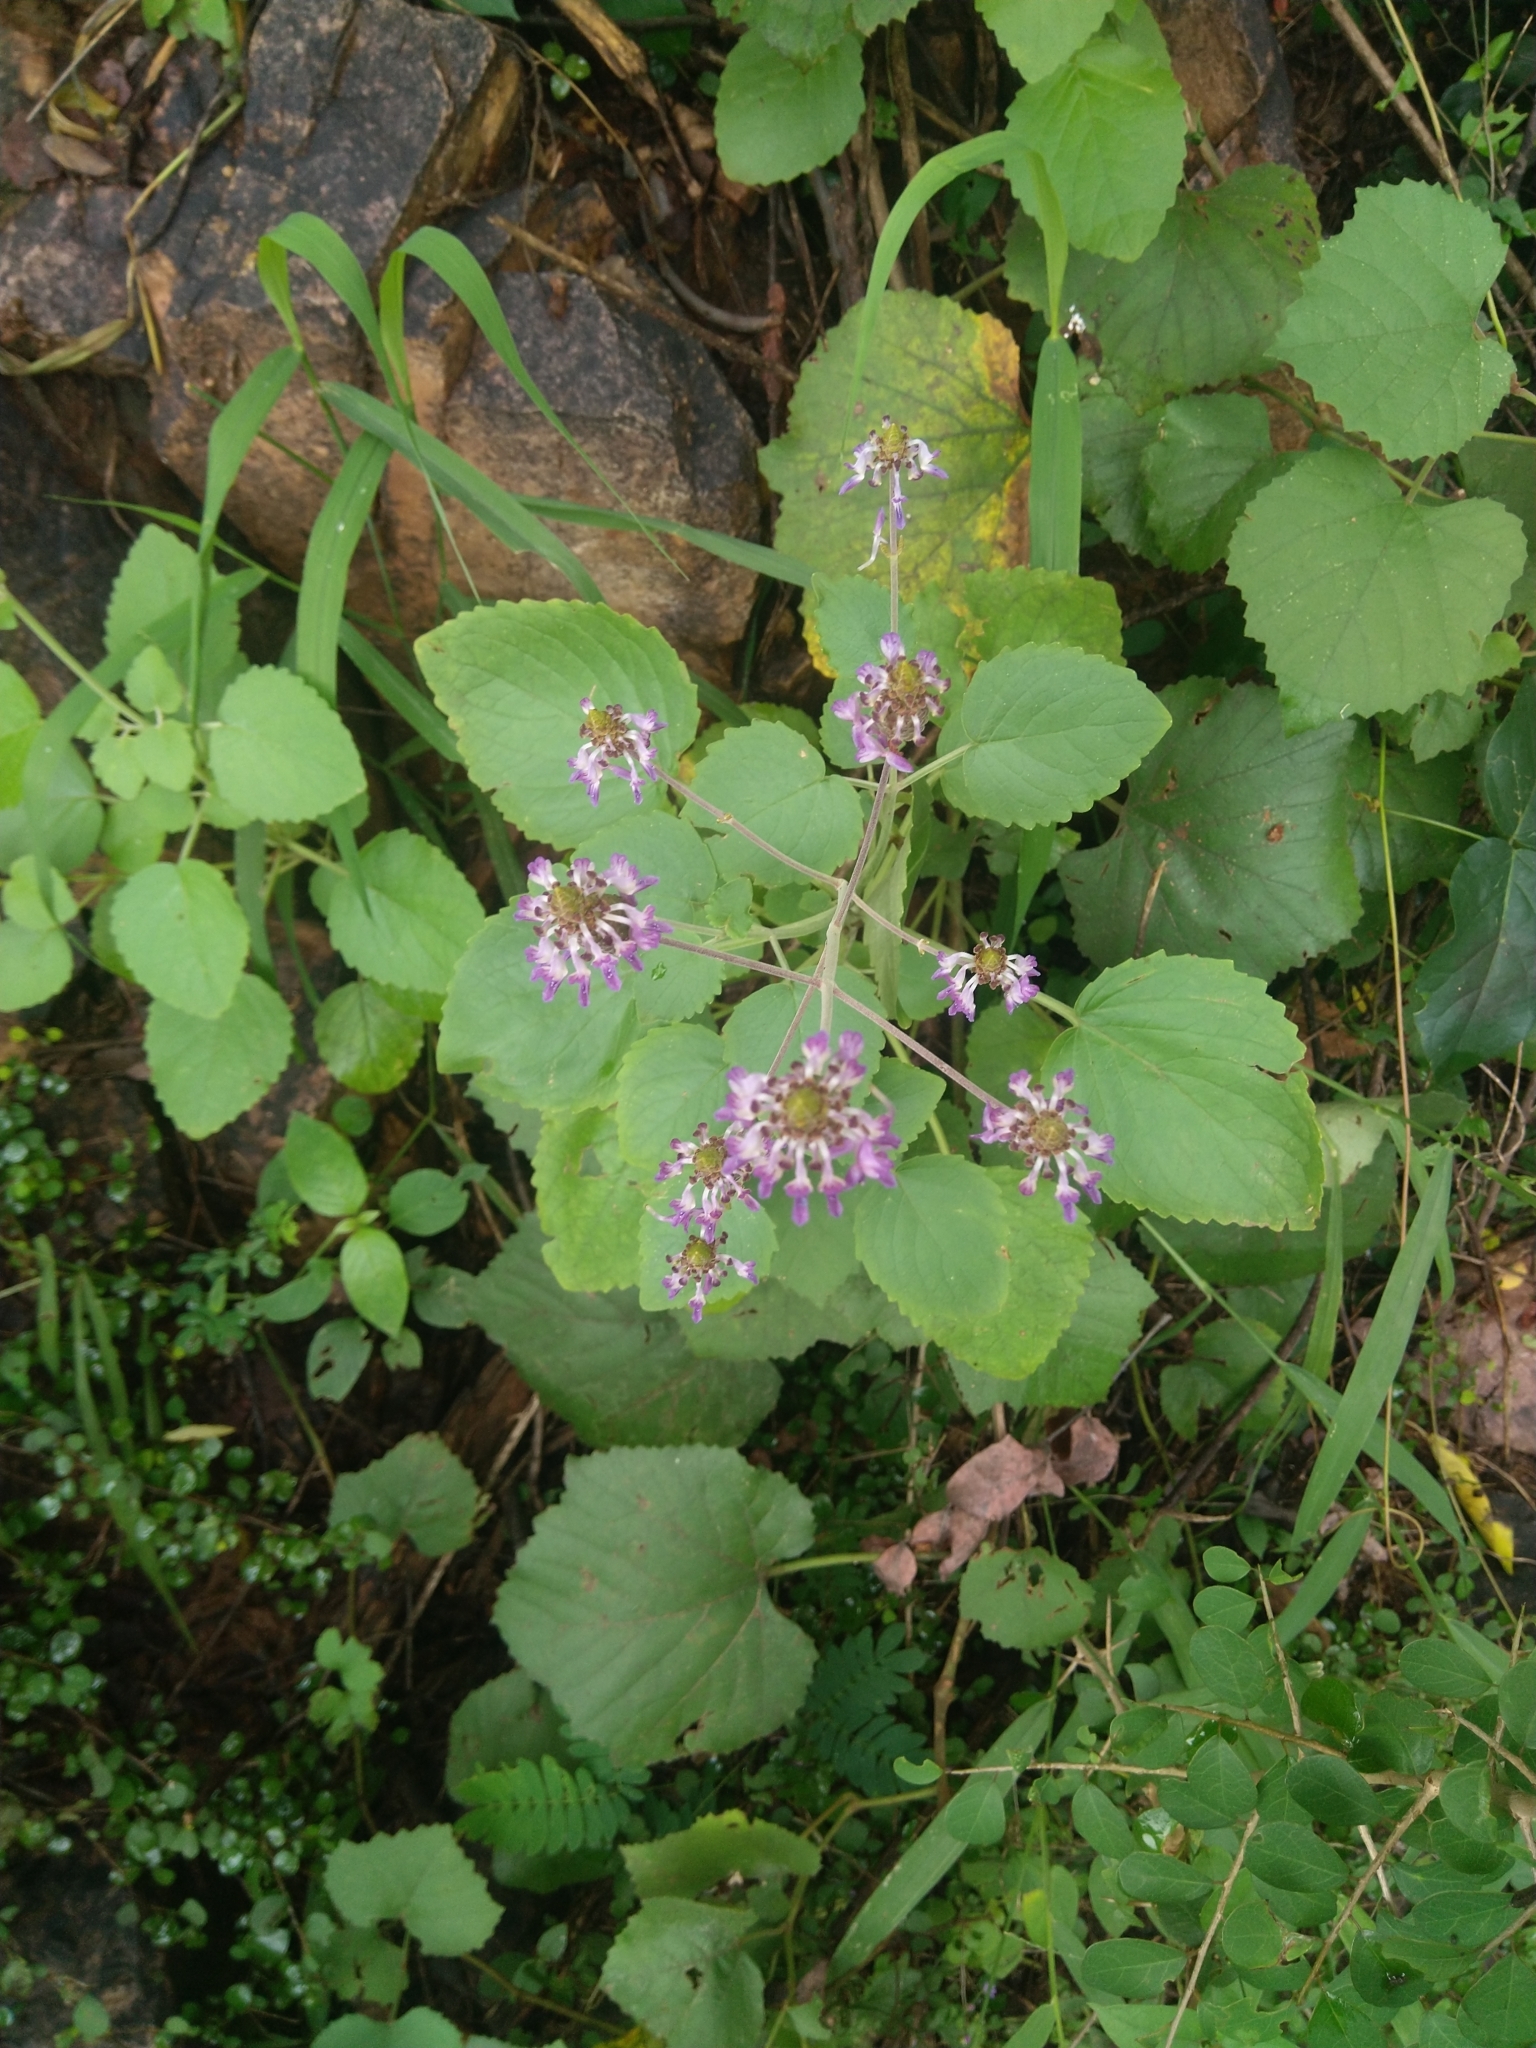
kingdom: Plantae
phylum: Tracheophyta
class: Magnoliopsida
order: Lamiales
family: Lamiaceae
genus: Coleus
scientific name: Coleus strobilifer
